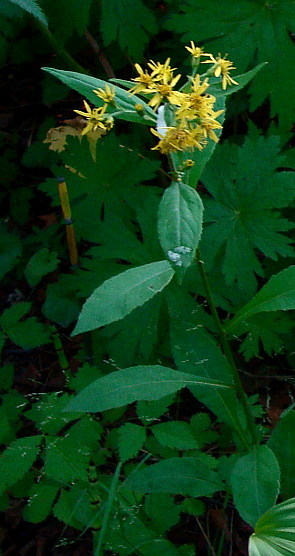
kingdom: Plantae
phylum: Tracheophyta
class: Magnoliopsida
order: Asterales
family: Asteraceae
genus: Solidago
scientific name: Solidago cuprea
